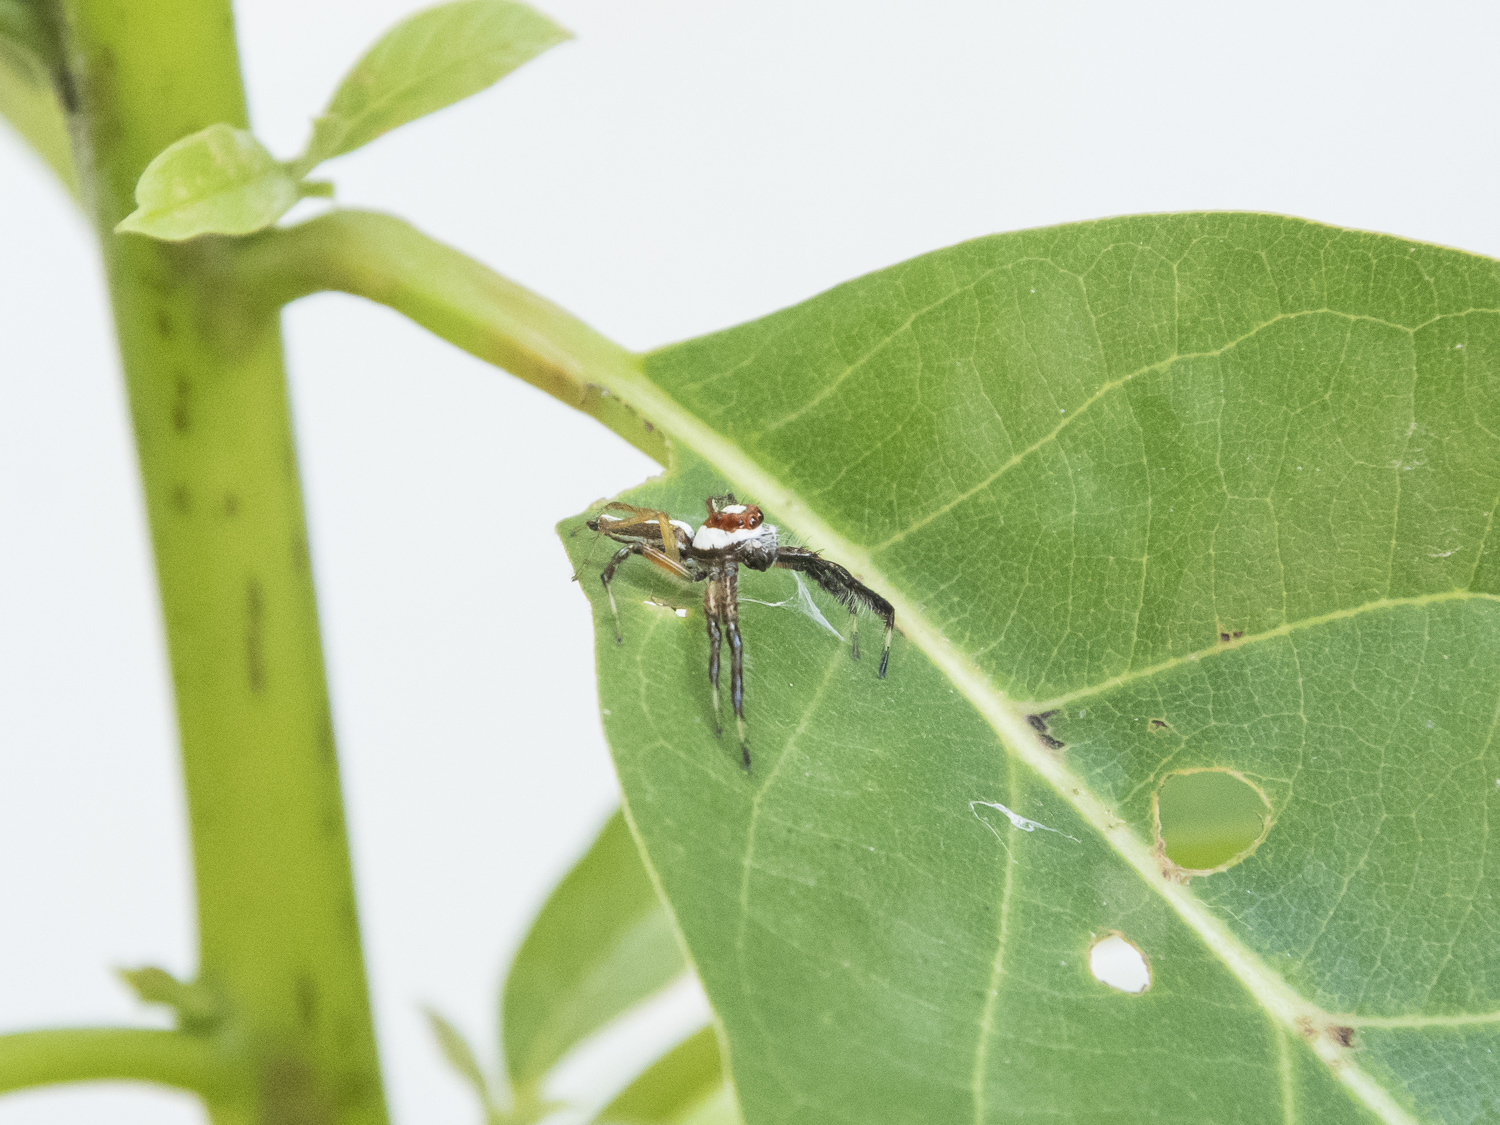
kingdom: Animalia
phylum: Arthropoda
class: Arachnida
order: Araneae
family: Salticidae
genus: Telamonia
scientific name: Telamonia dimidiata
